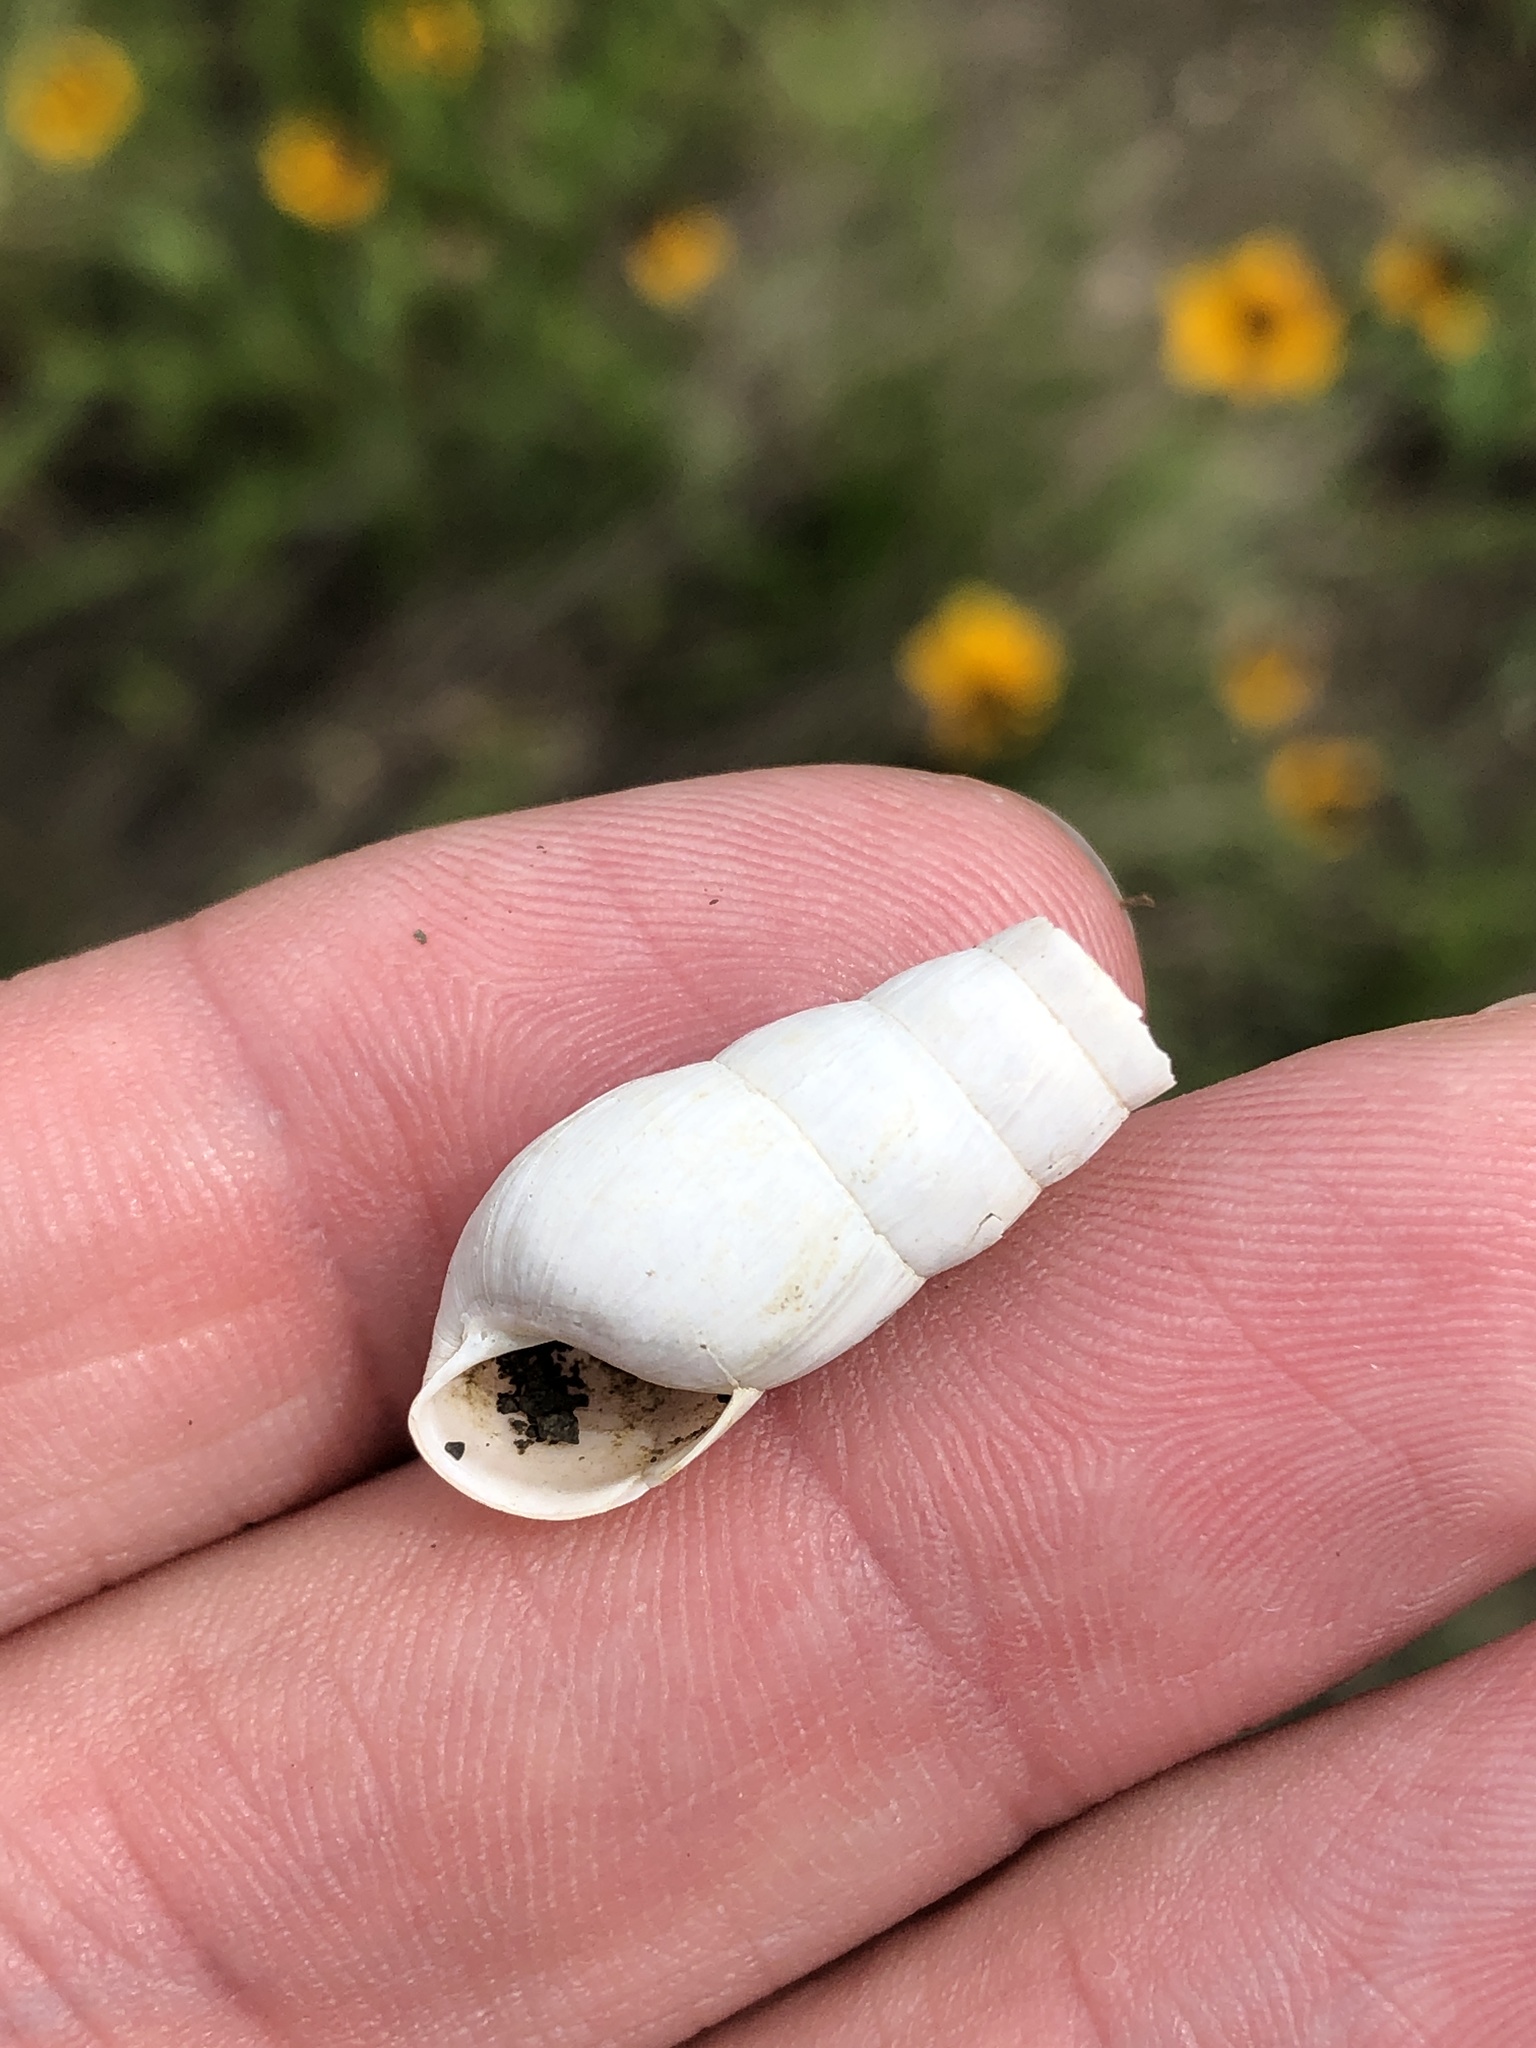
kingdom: Animalia
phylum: Mollusca
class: Gastropoda
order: Stylommatophora
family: Achatinidae
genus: Rumina
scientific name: Rumina decollata
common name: Decollate snail
